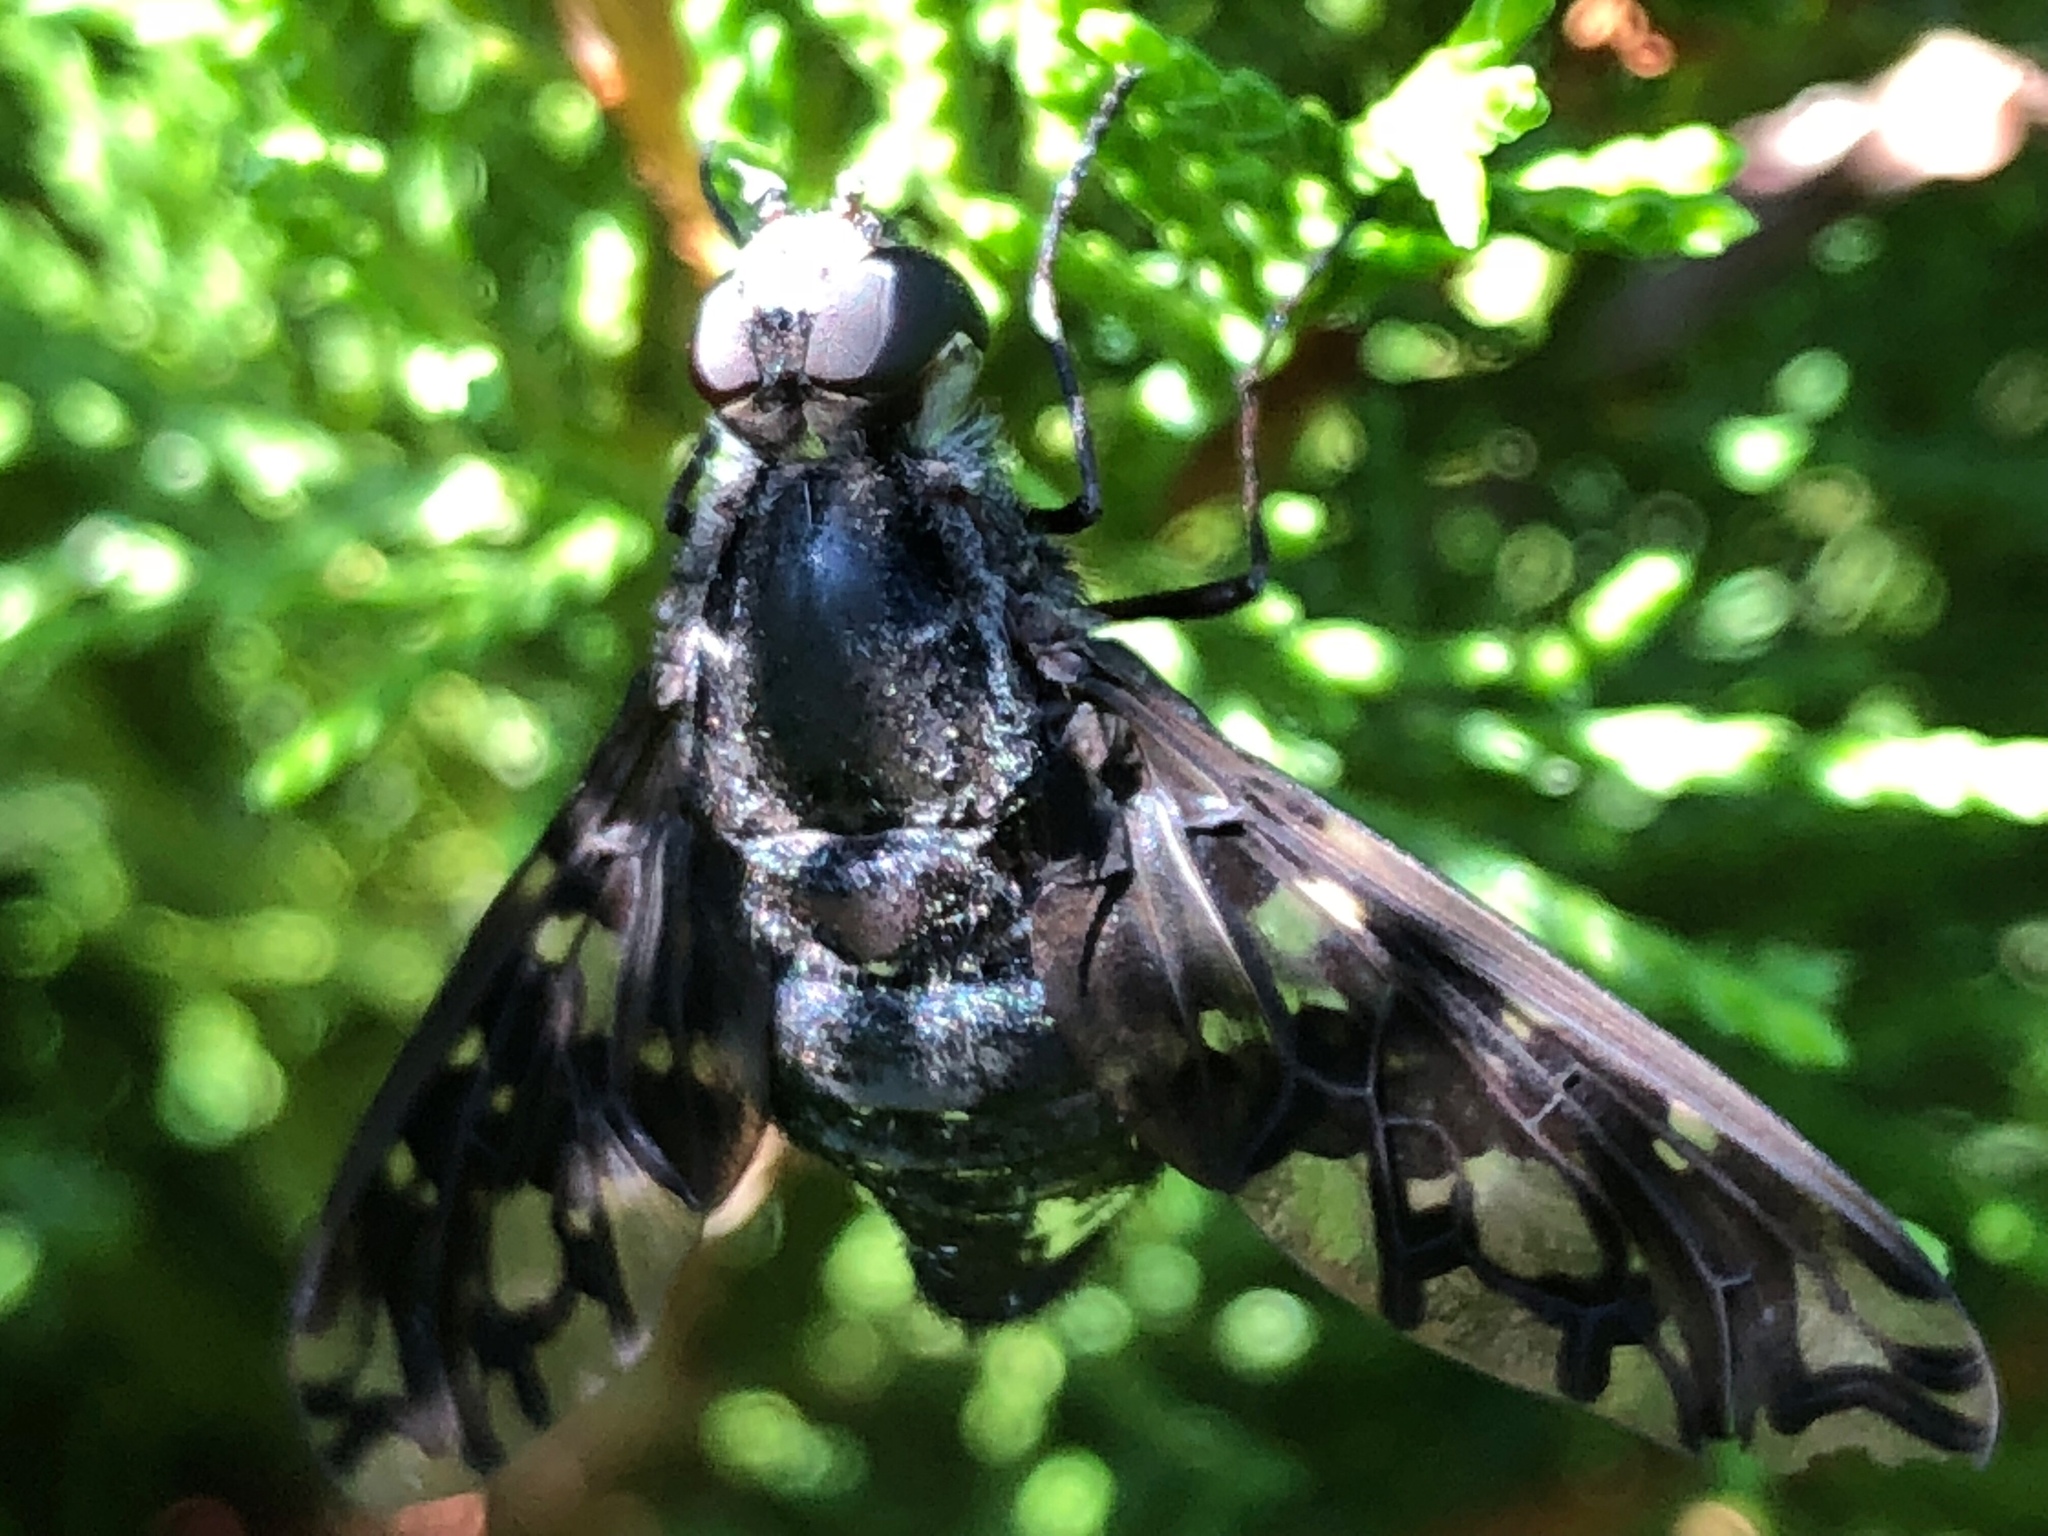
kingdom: Animalia
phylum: Arthropoda
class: Insecta
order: Diptera
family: Bombyliidae
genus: Xenox
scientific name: Xenox tigrinus
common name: Tiger bee fly
